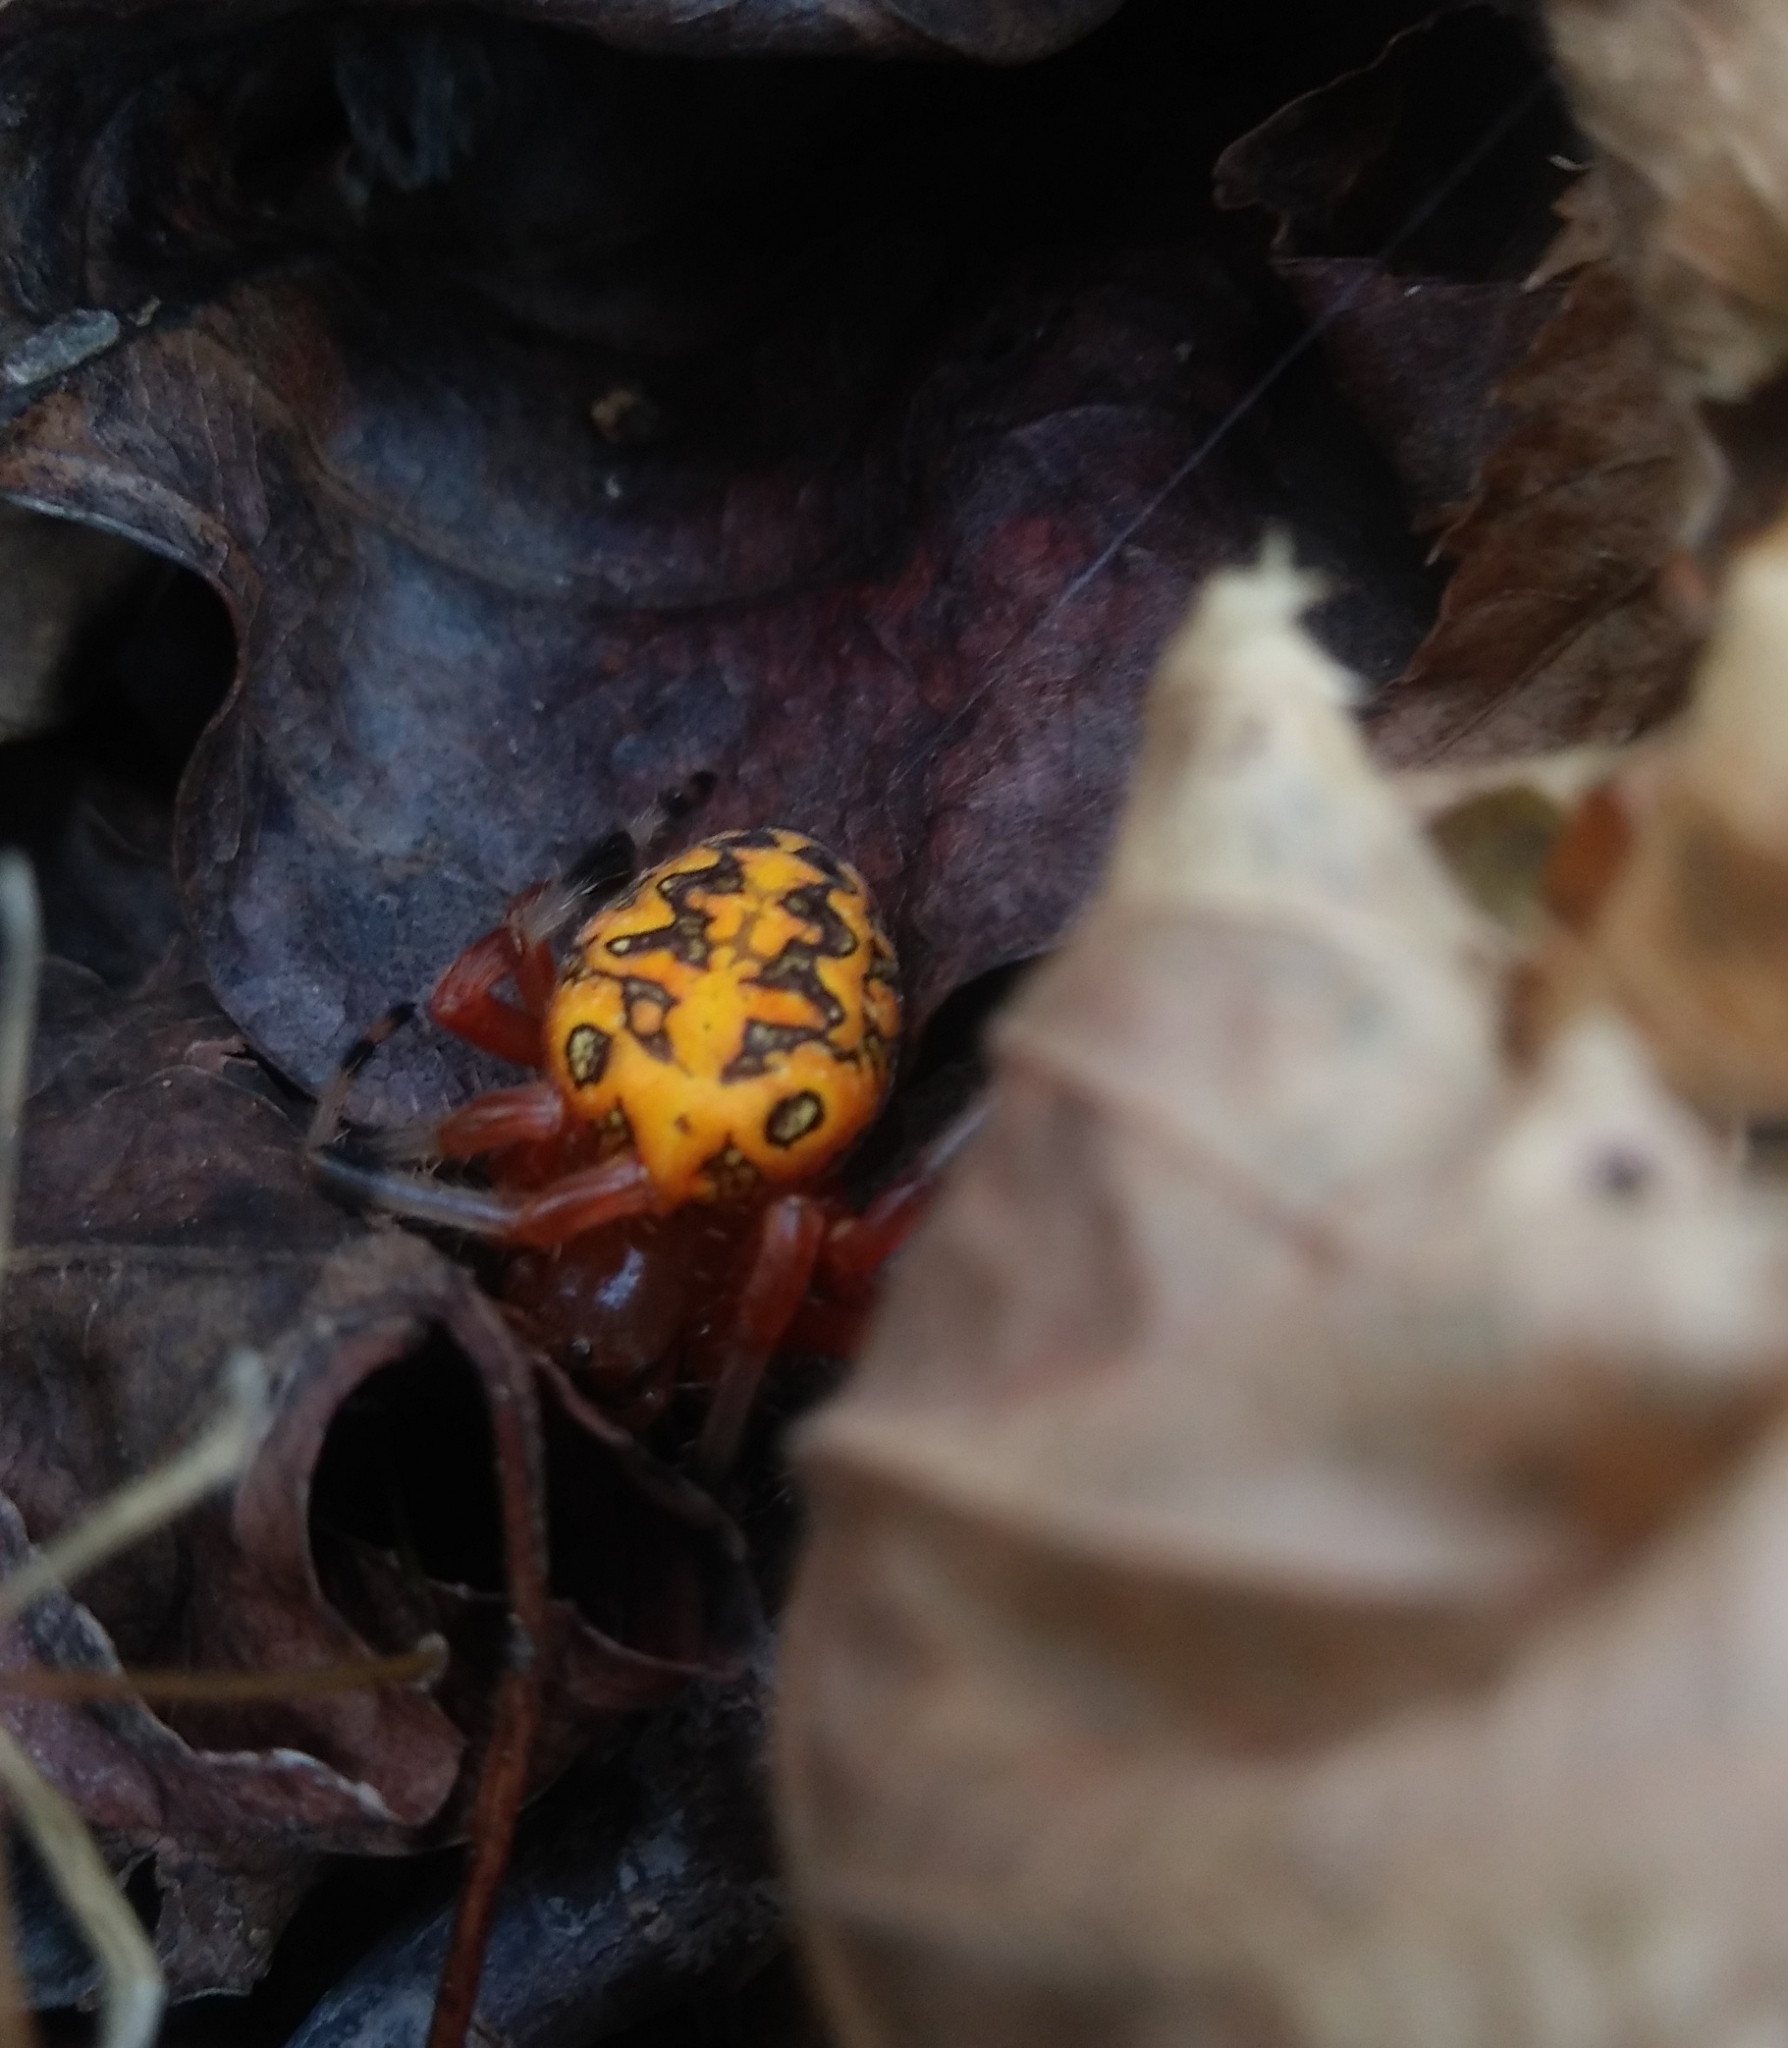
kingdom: Animalia
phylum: Arthropoda
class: Arachnida
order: Araneae
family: Araneidae
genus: Araneus
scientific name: Araneus marmoreus
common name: Marbled orbweaver
